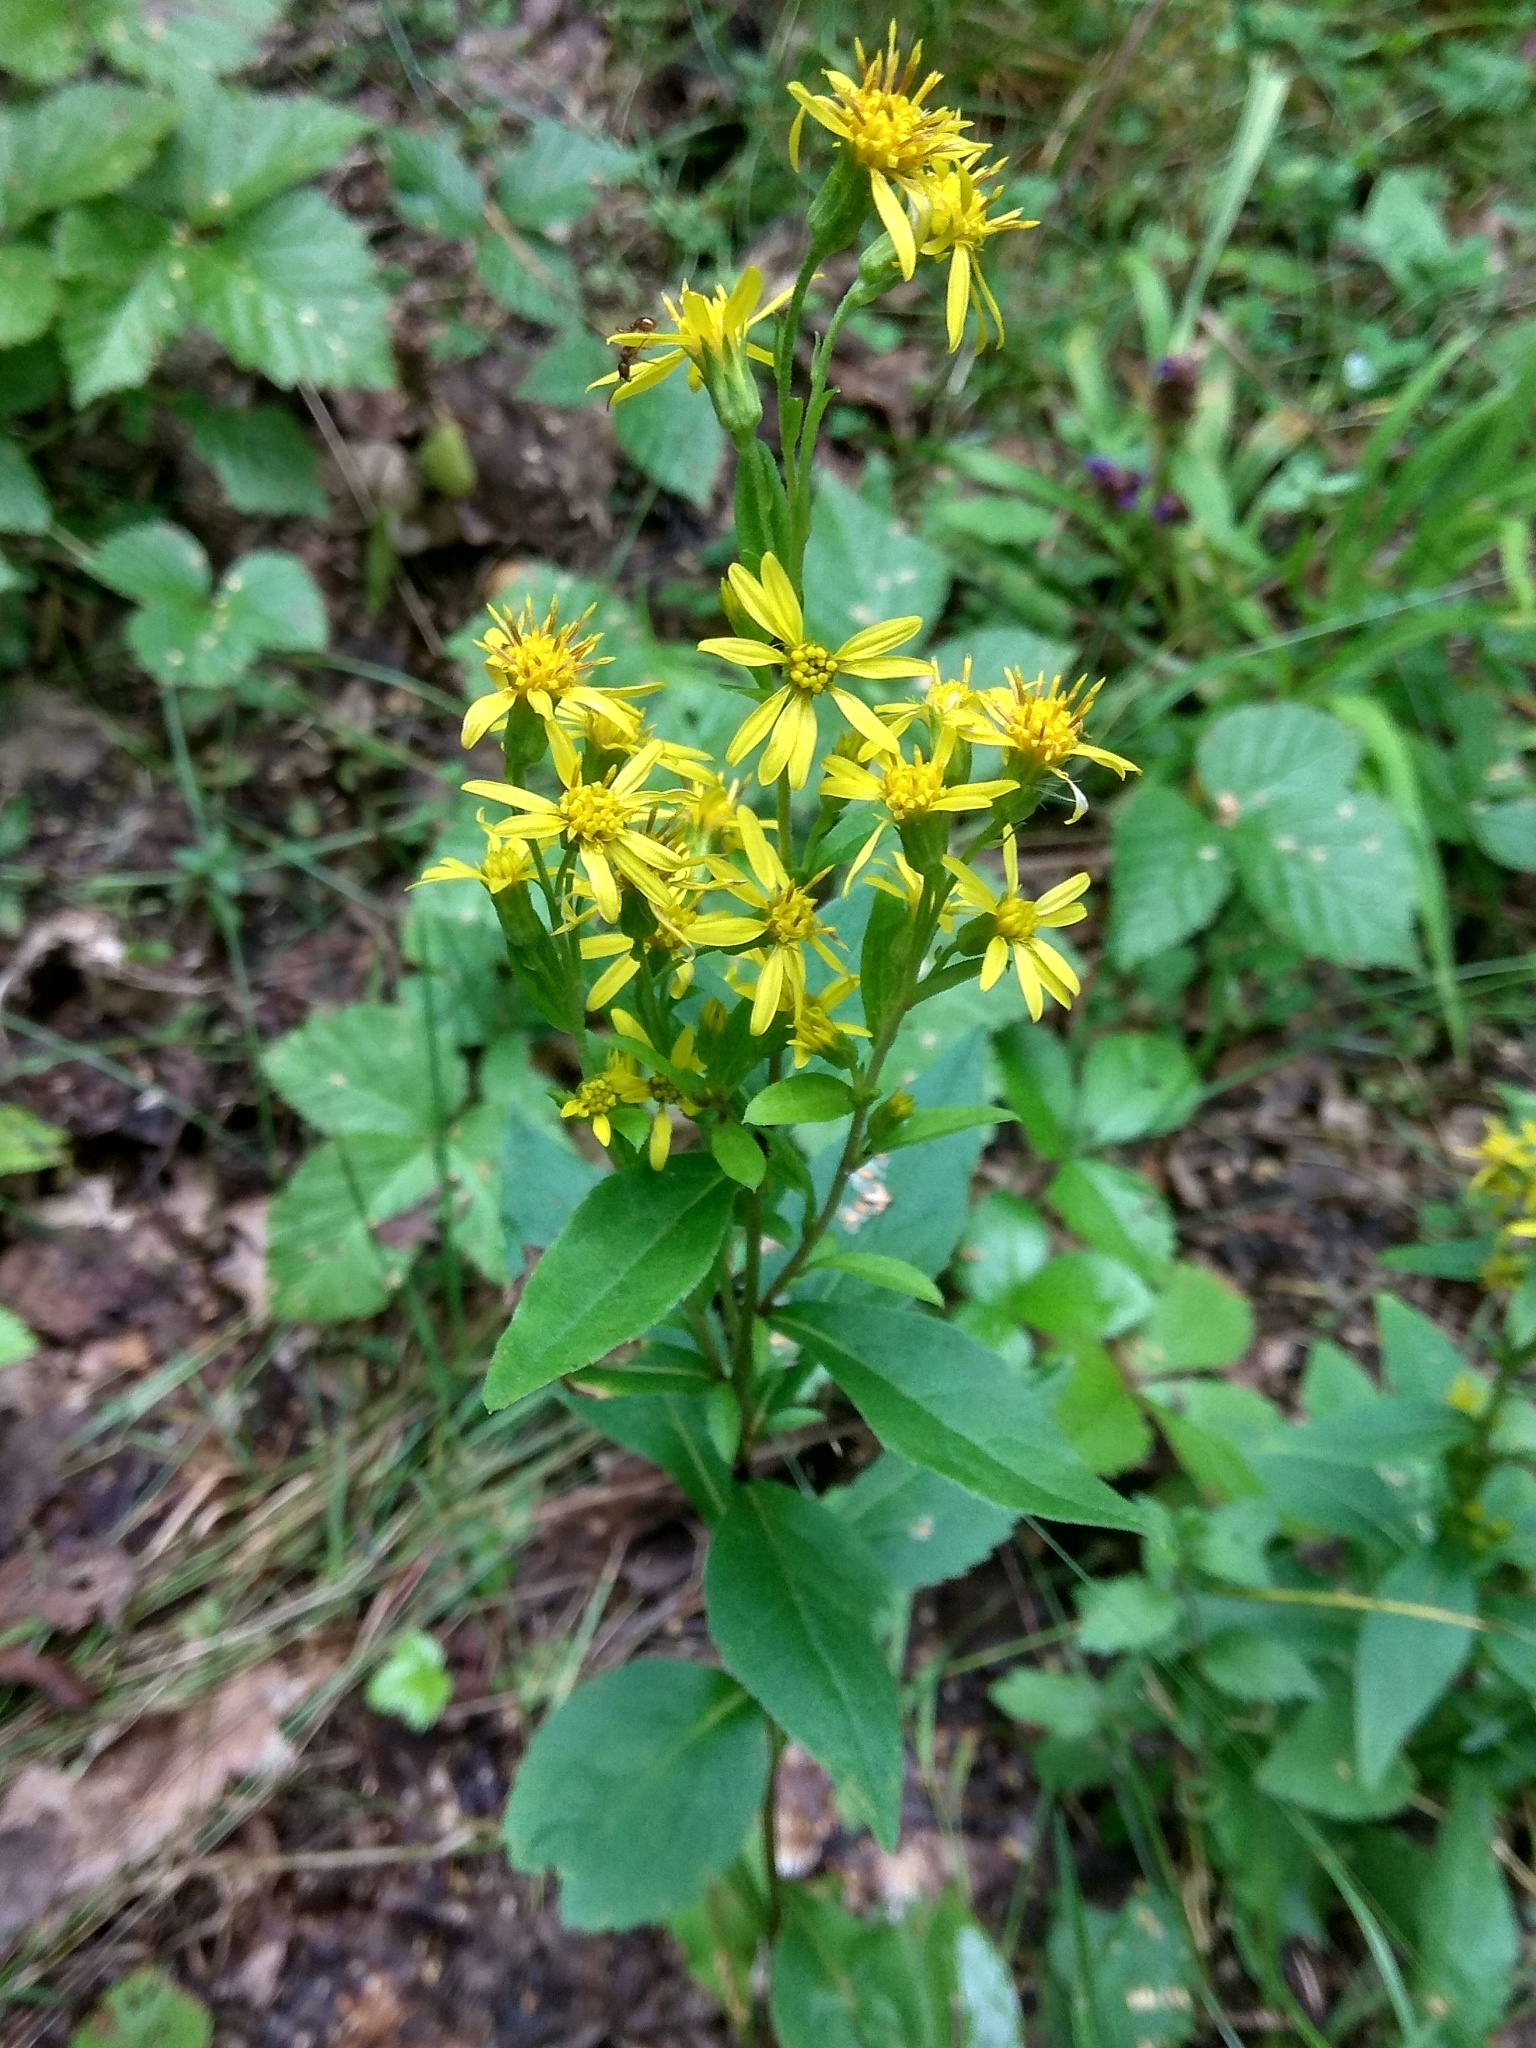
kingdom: Plantae
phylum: Tracheophyta
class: Magnoliopsida
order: Asterales
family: Asteraceae
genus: Solidago
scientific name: Solidago virgaurea
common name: Goldenrod
